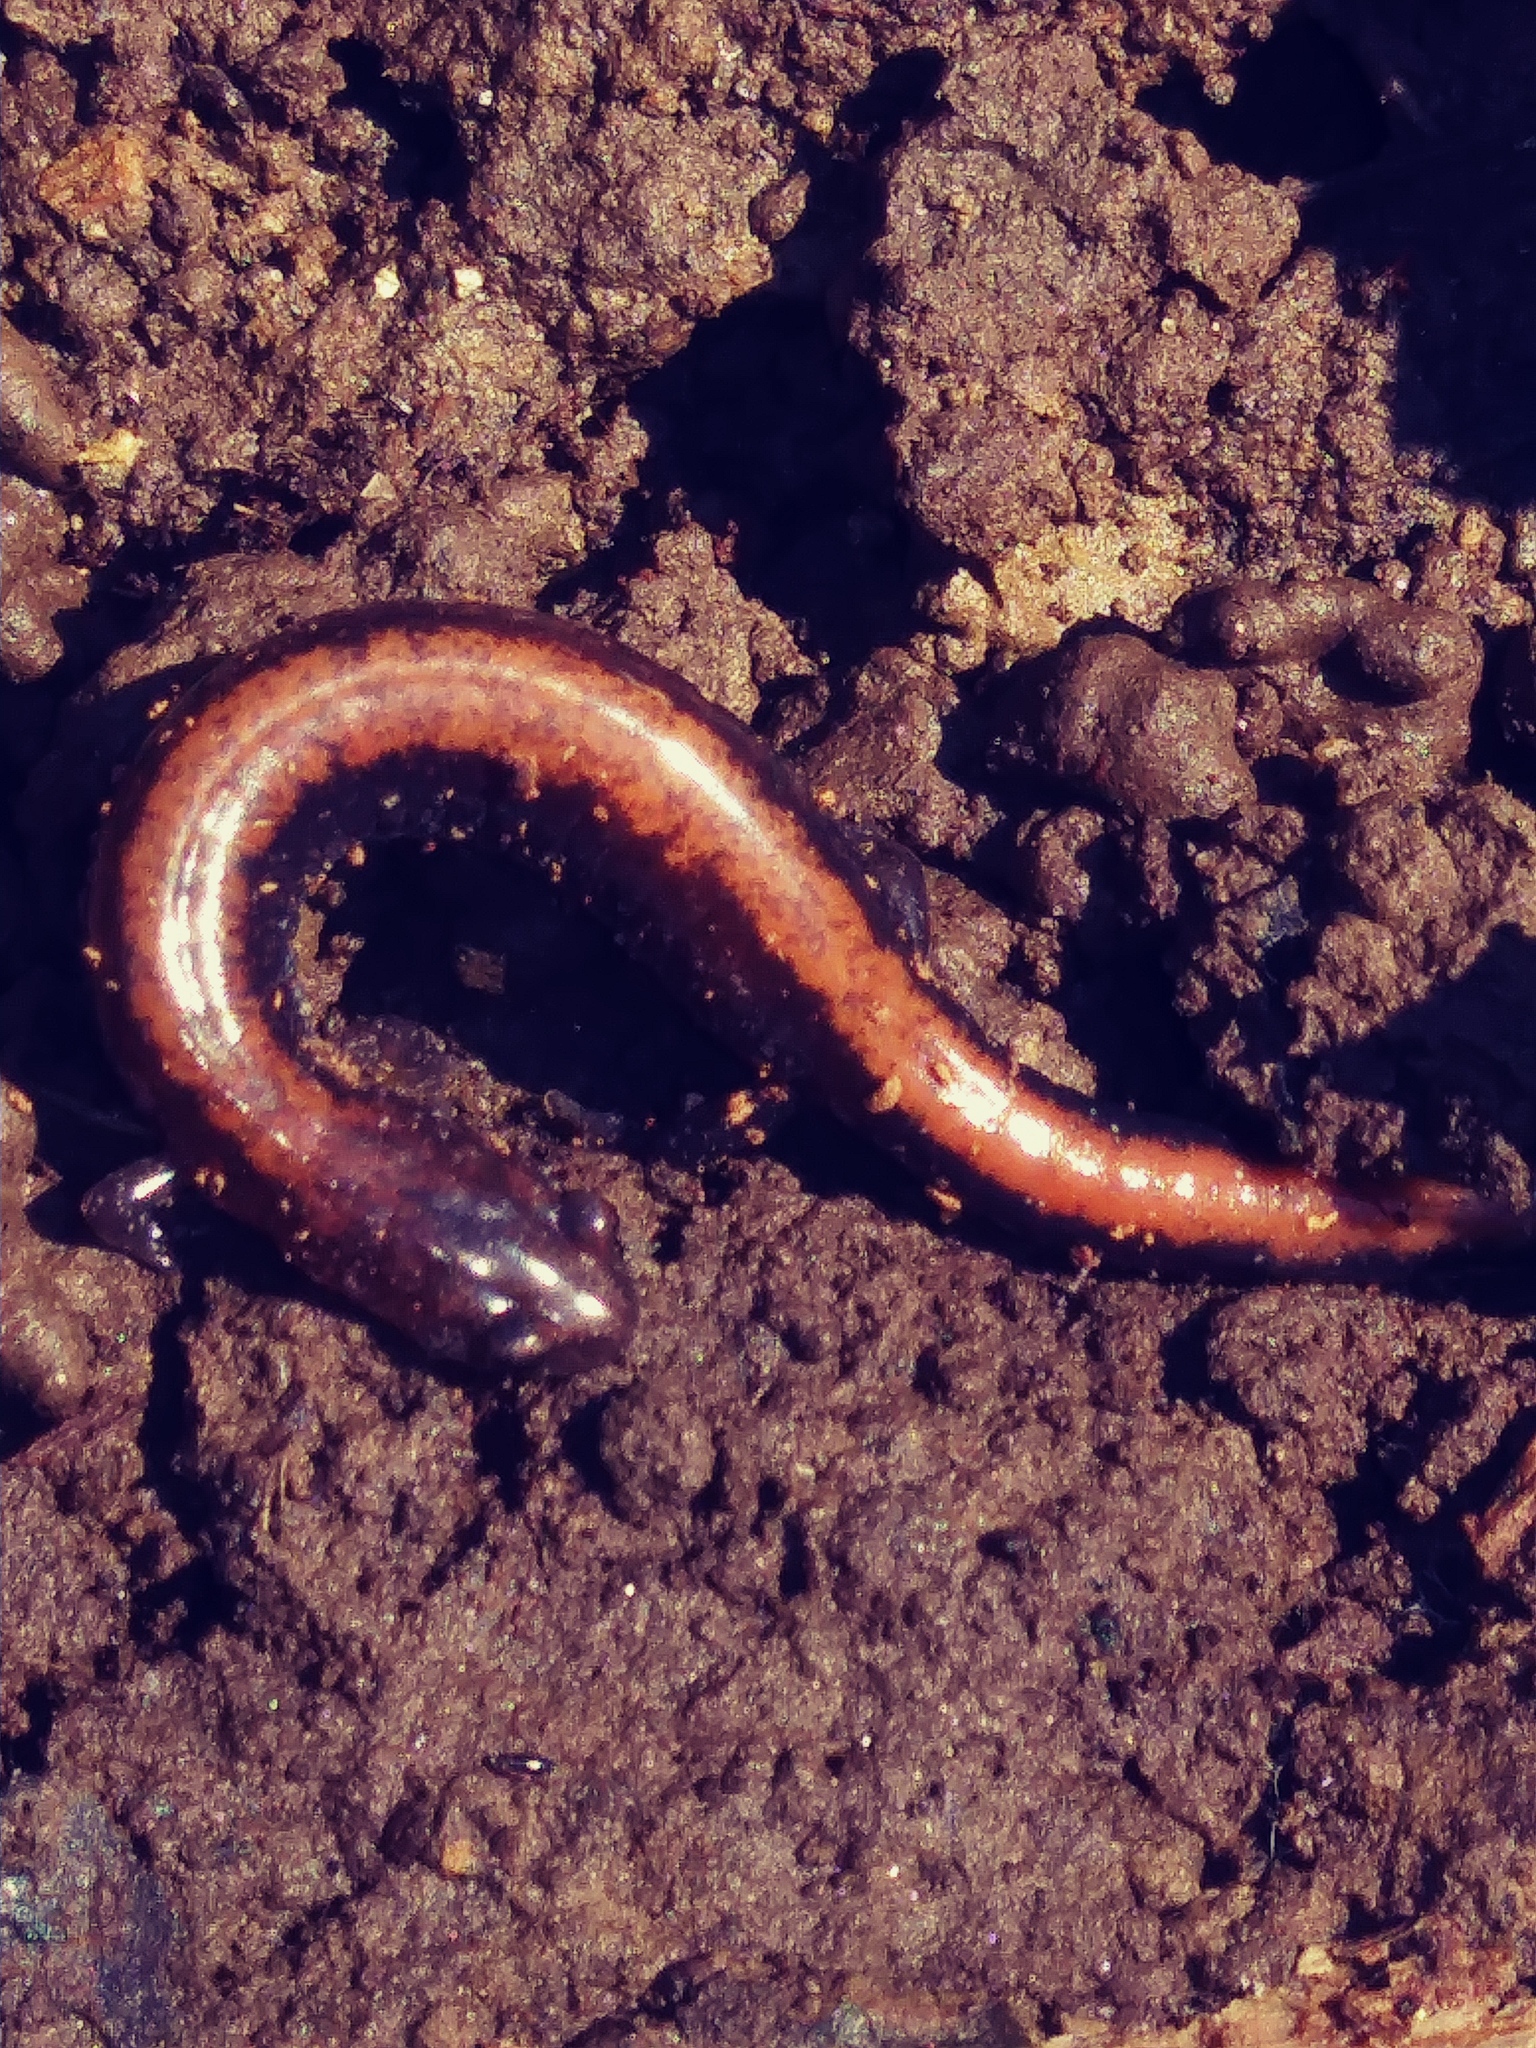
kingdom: Animalia
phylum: Chordata
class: Amphibia
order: Caudata
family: Plethodontidae
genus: Plethodon
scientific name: Plethodon cinereus
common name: Redback salamander
